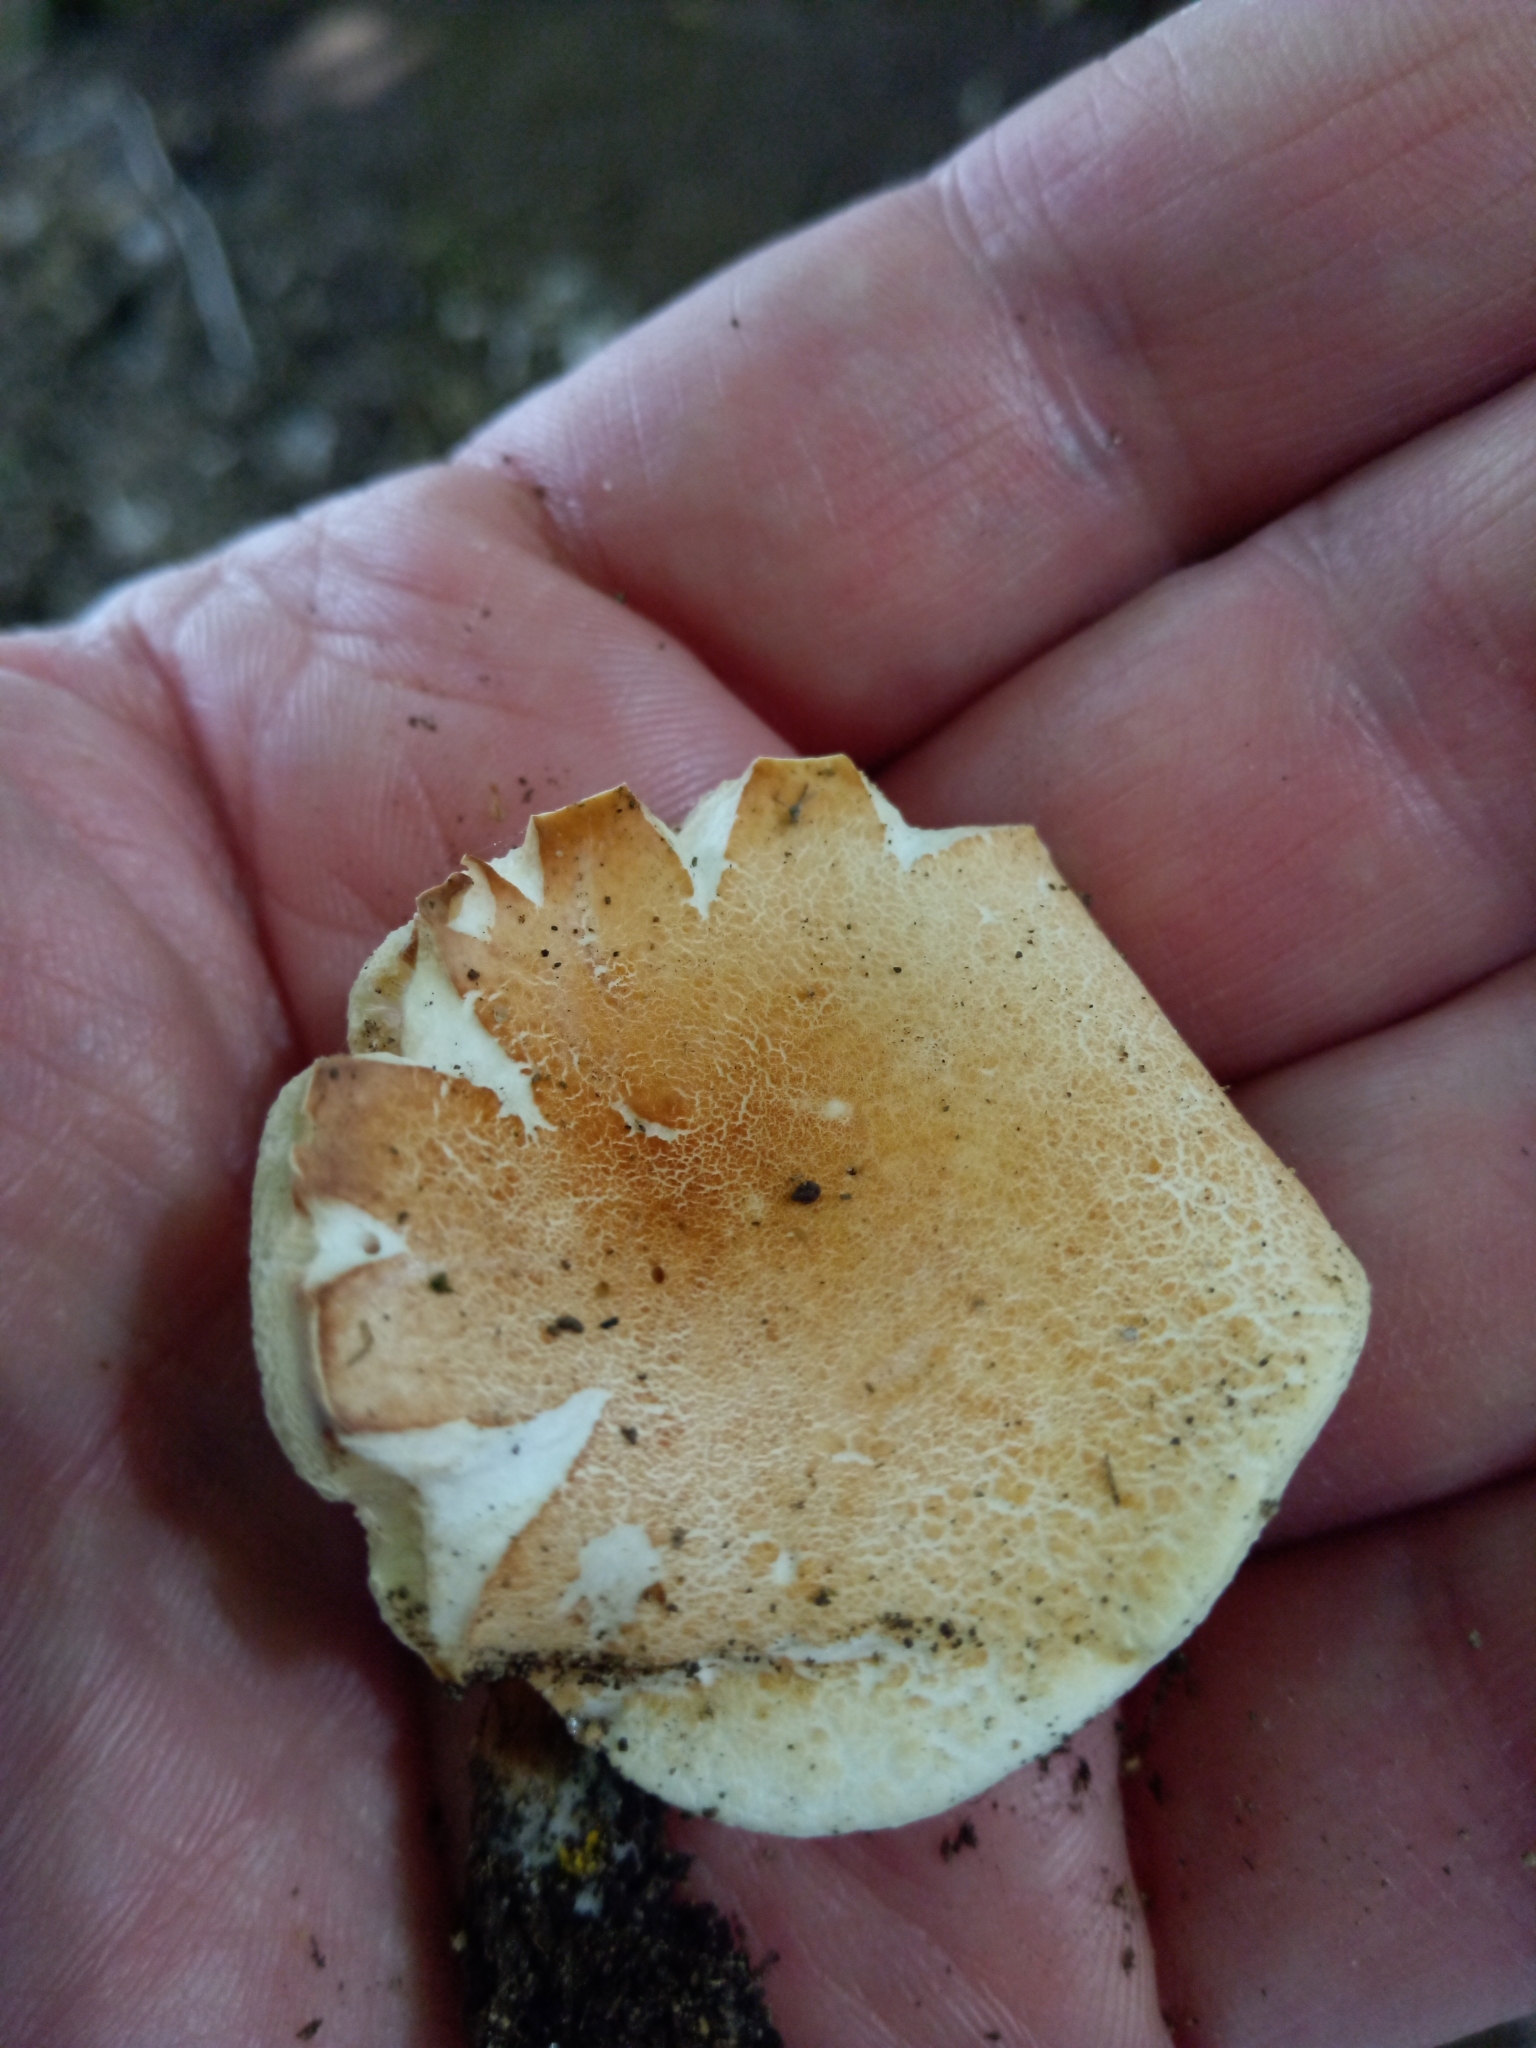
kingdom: Fungi
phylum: Basidiomycota
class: Agaricomycetes
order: Boletales
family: Gyroporaceae
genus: Gyroporus
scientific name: Gyroporus castaneus
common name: Chestnut bolete
